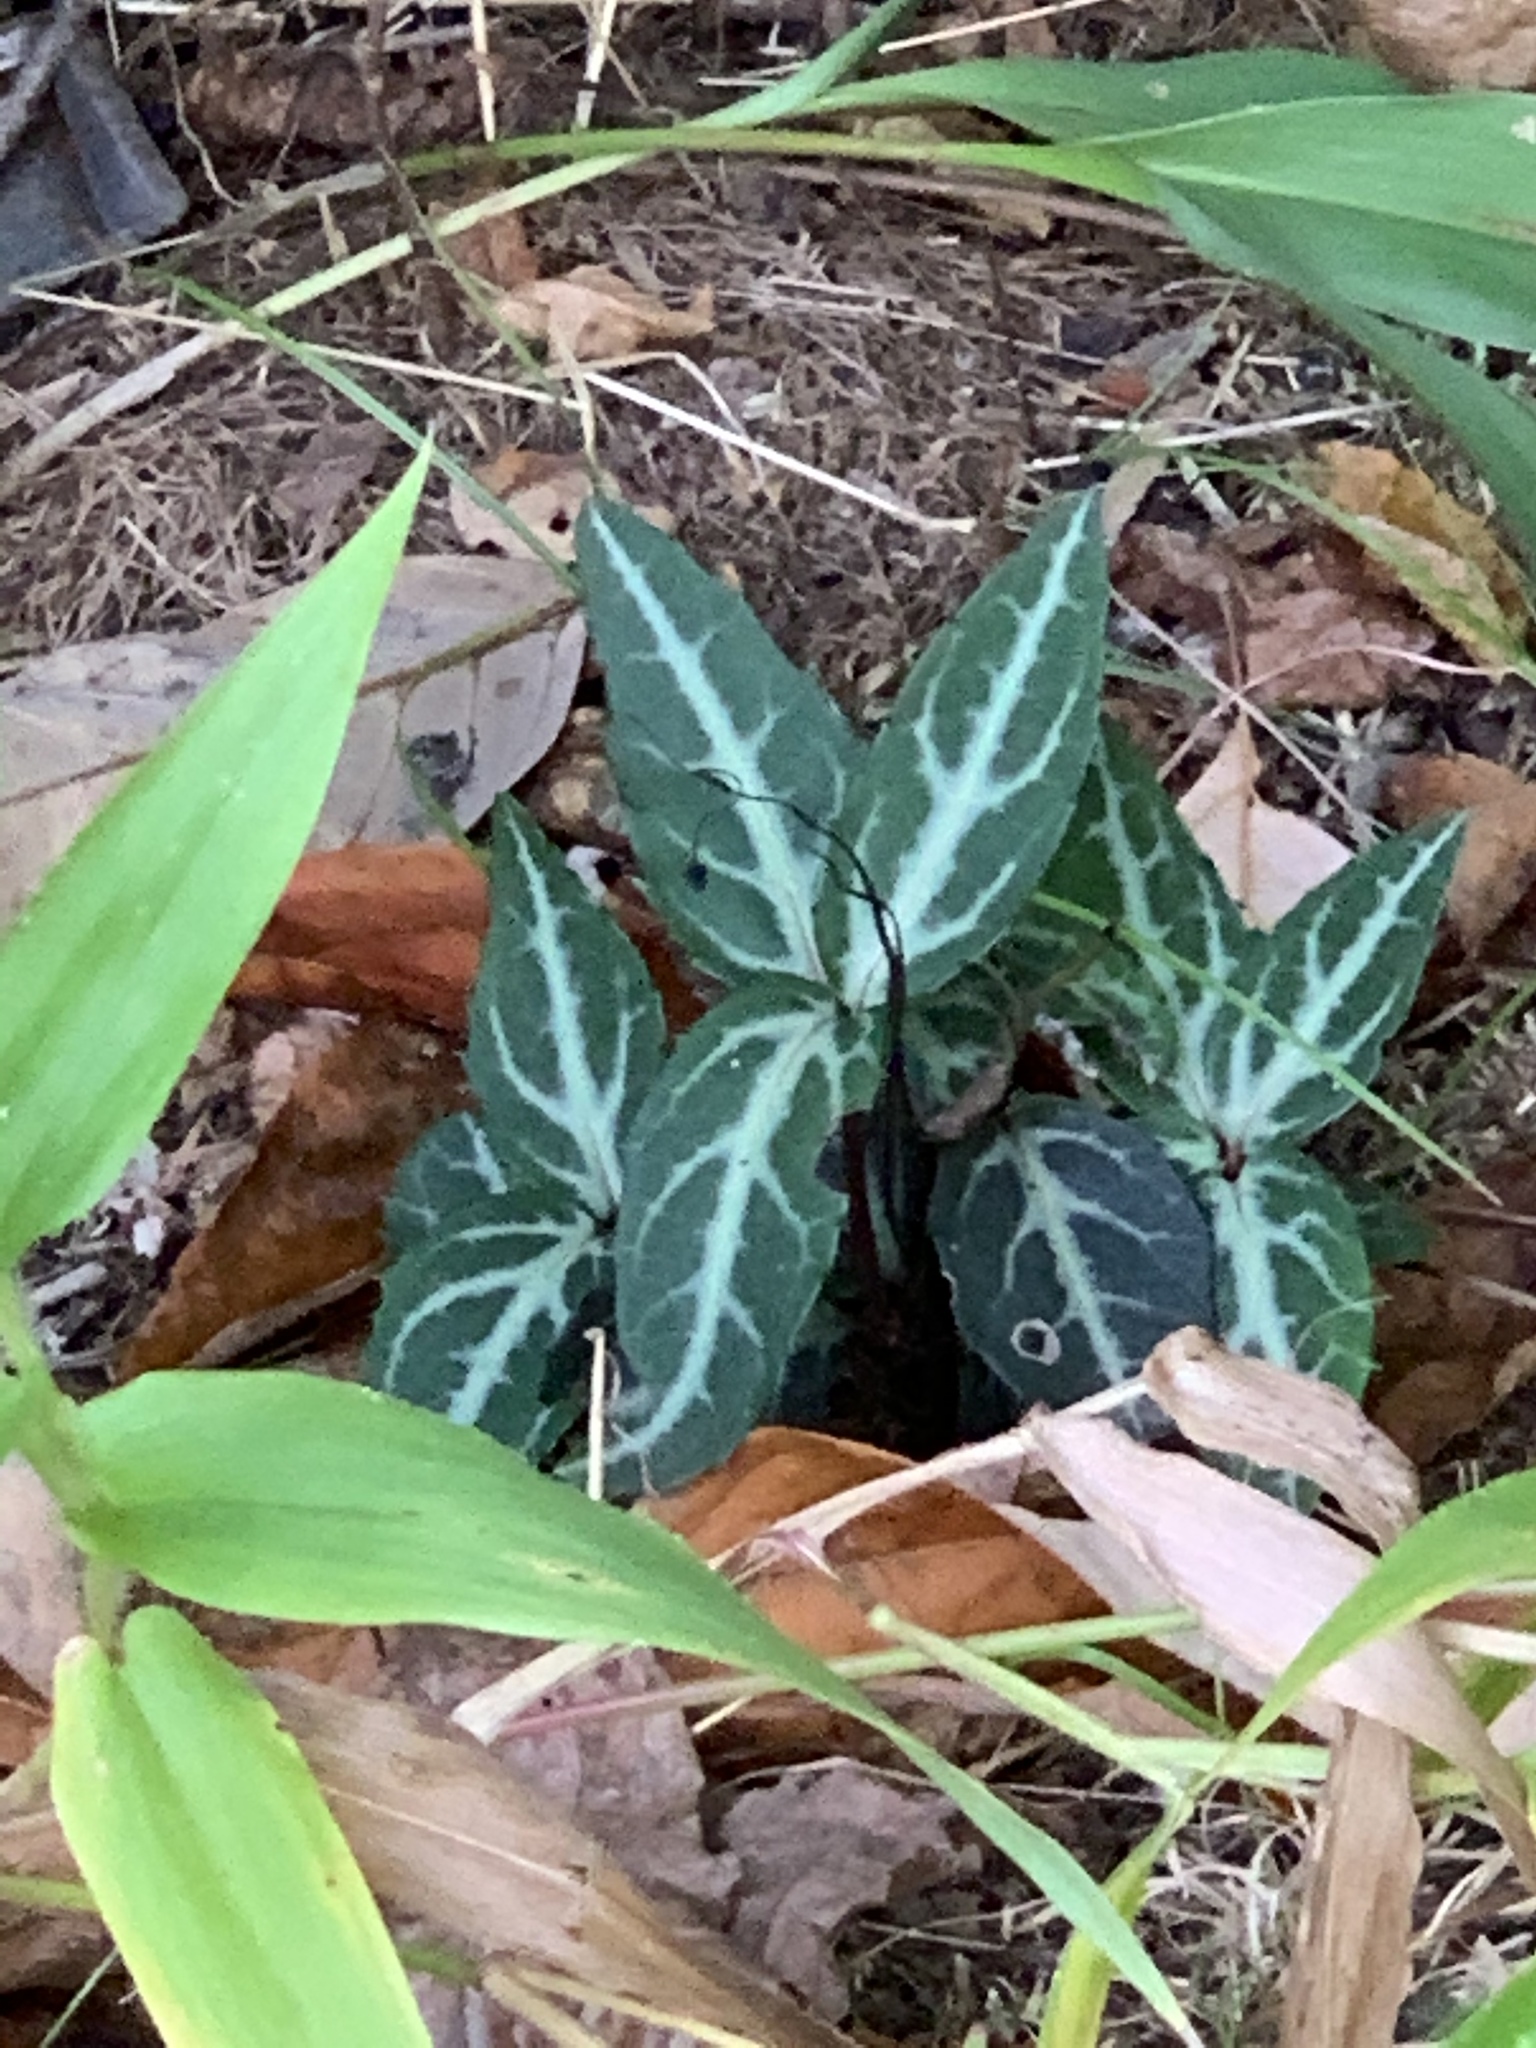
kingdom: Plantae
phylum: Tracheophyta
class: Magnoliopsida
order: Ericales
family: Ericaceae
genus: Chimaphila
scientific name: Chimaphila maculata
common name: Spotted pipsissewa
